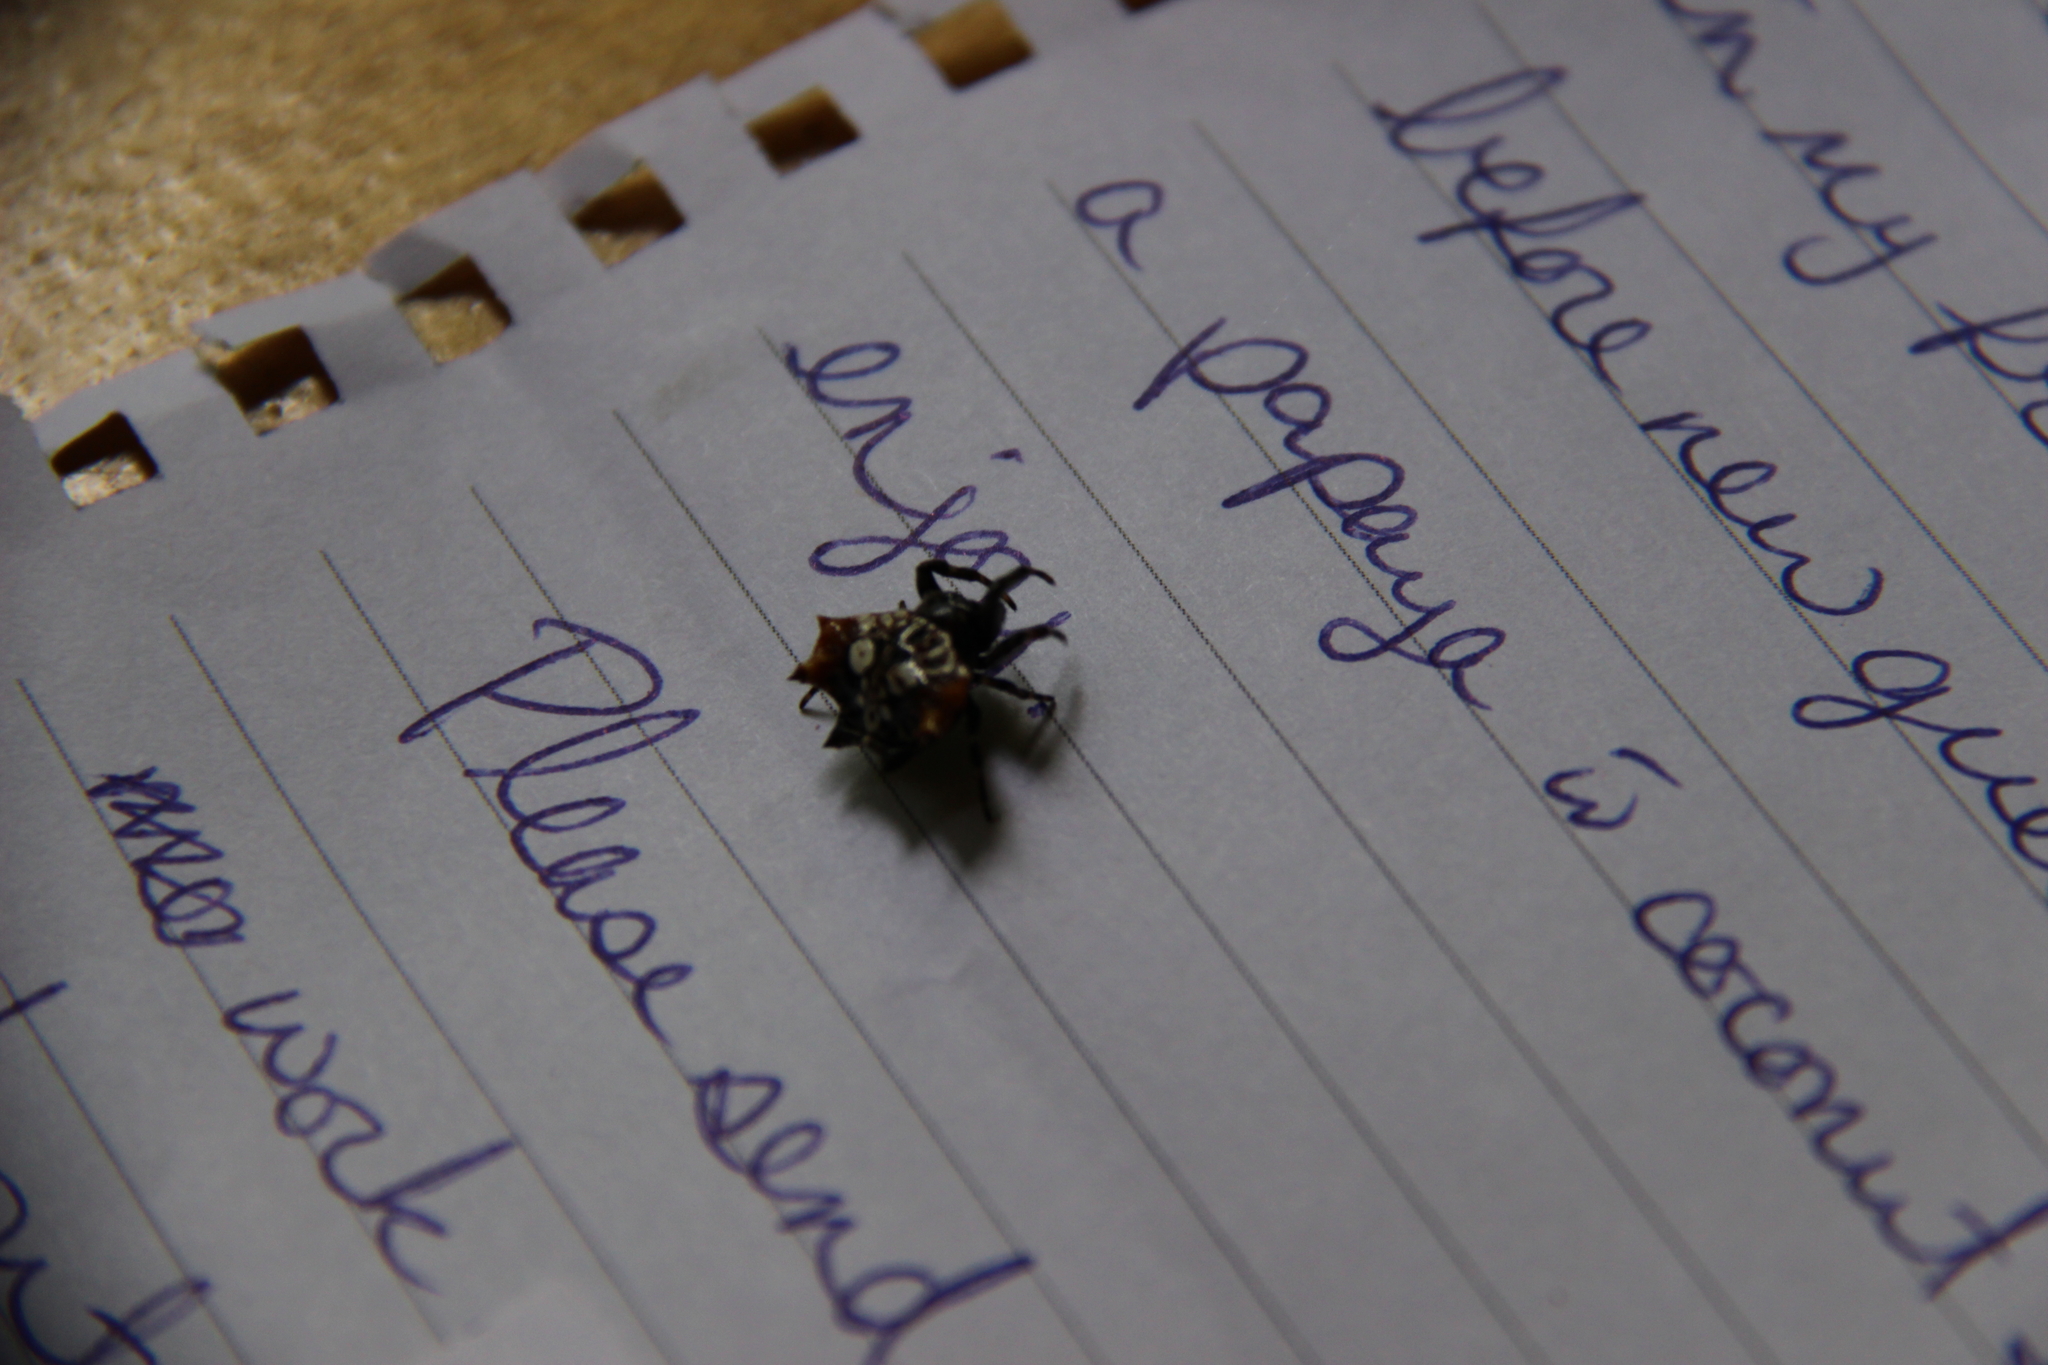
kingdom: Animalia
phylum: Arthropoda
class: Arachnida
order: Araneae
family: Araneidae
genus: Thelacantha
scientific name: Thelacantha brevispina
